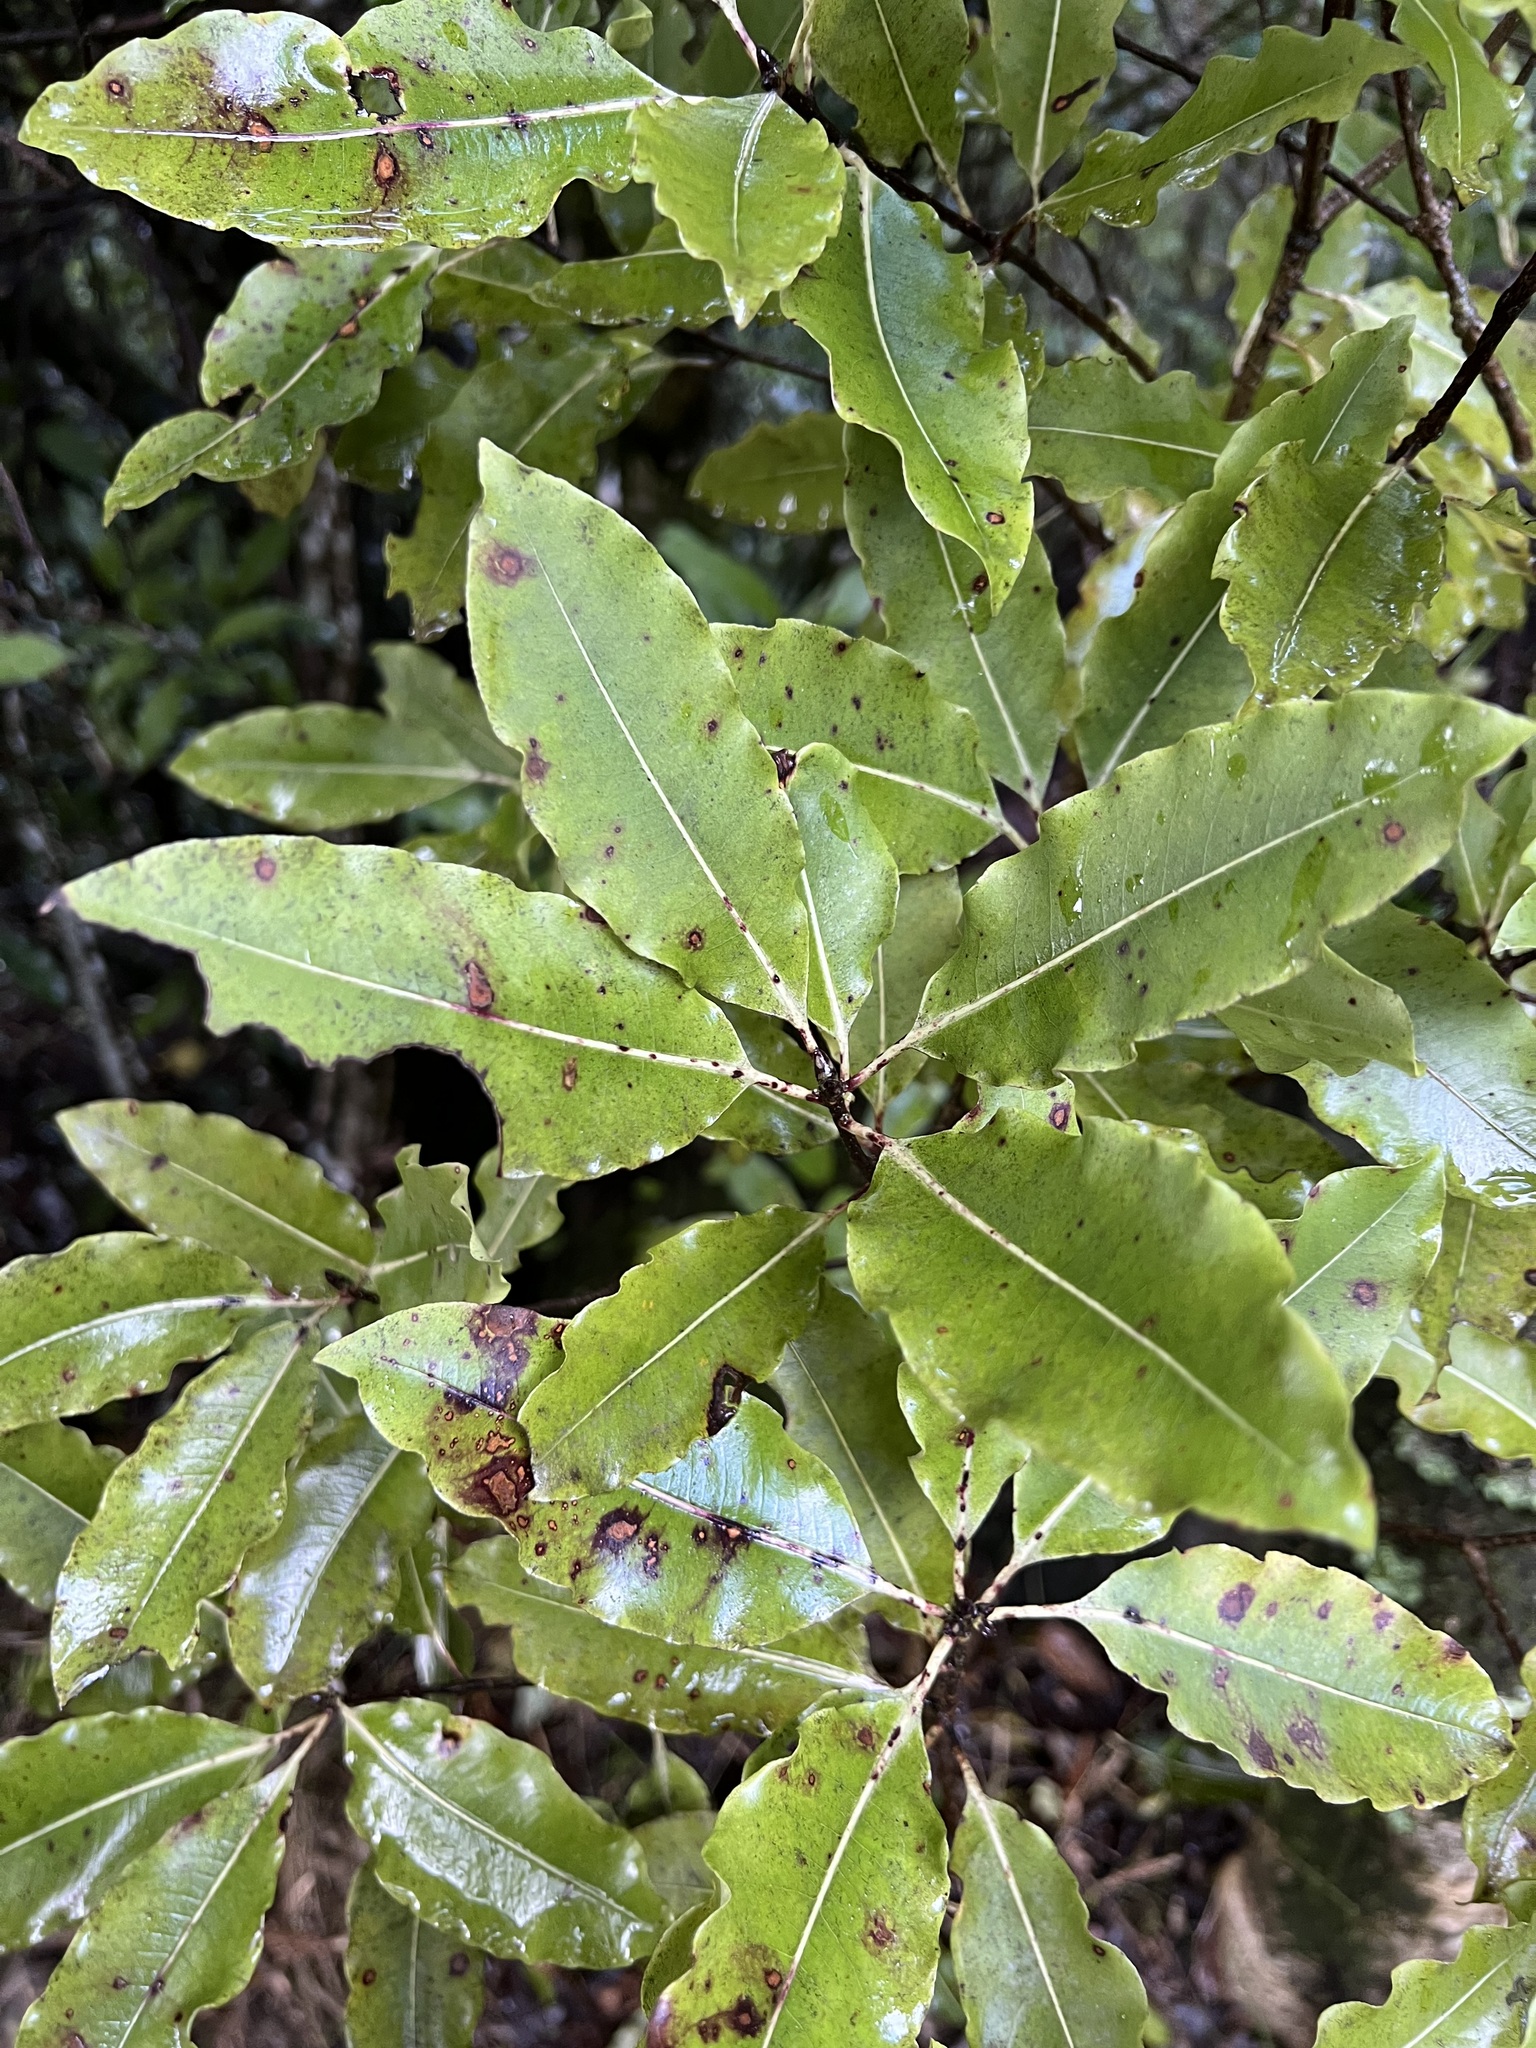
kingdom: Plantae
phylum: Tracheophyta
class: Magnoliopsida
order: Apiales
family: Pittosporaceae
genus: Pittosporum
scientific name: Pittosporum eugenioides
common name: Lemonwood
